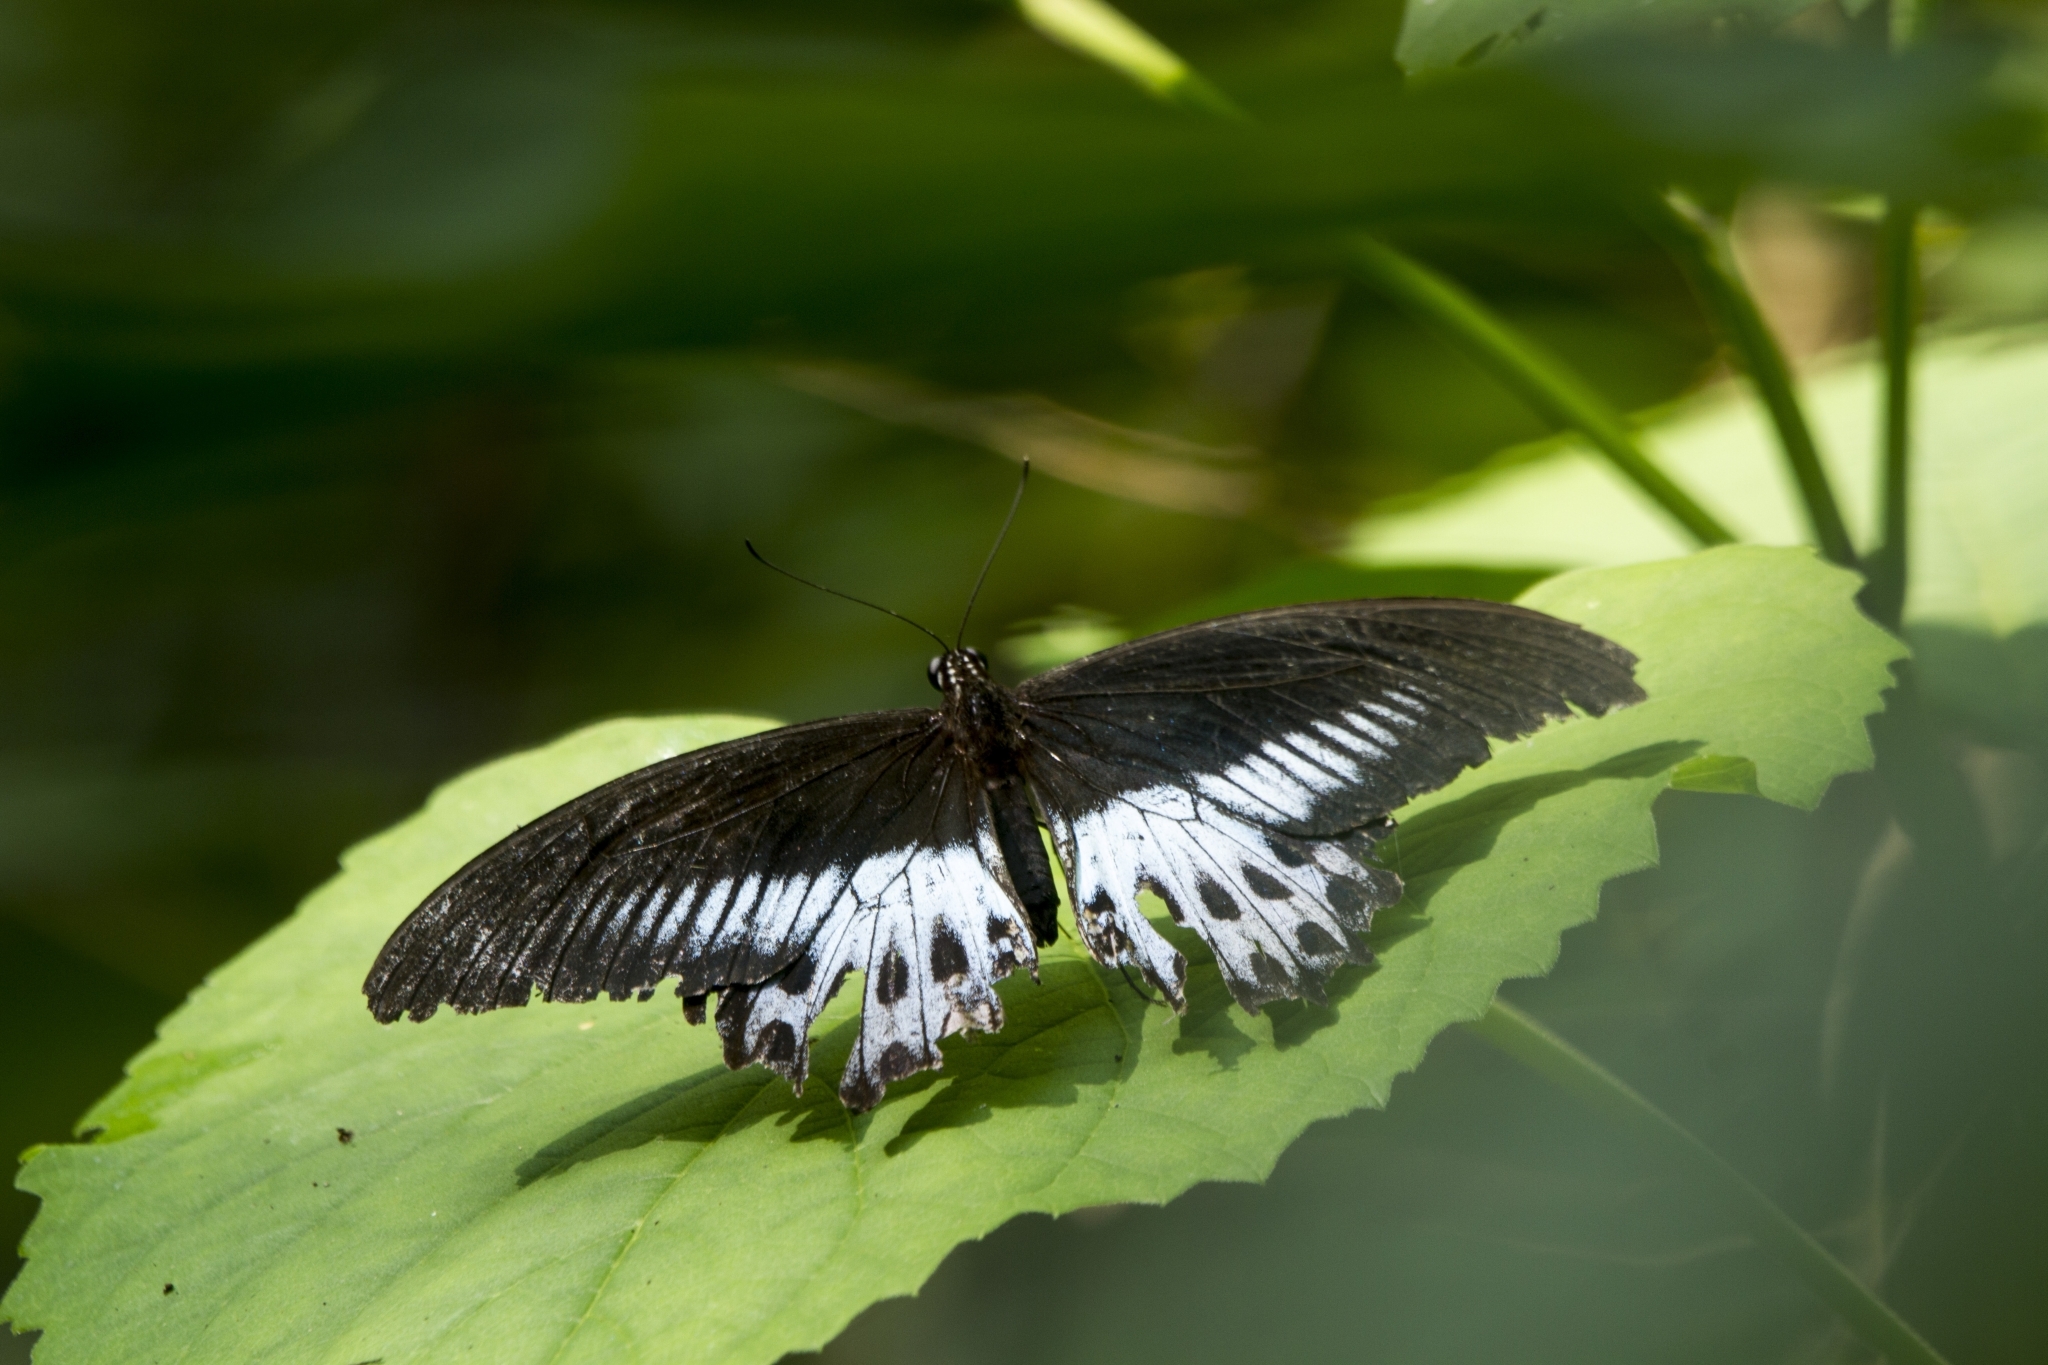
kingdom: Animalia
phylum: Arthropoda
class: Insecta
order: Lepidoptera
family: Papilionidae
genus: Papilio
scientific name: Papilio memnon
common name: Great mormon
